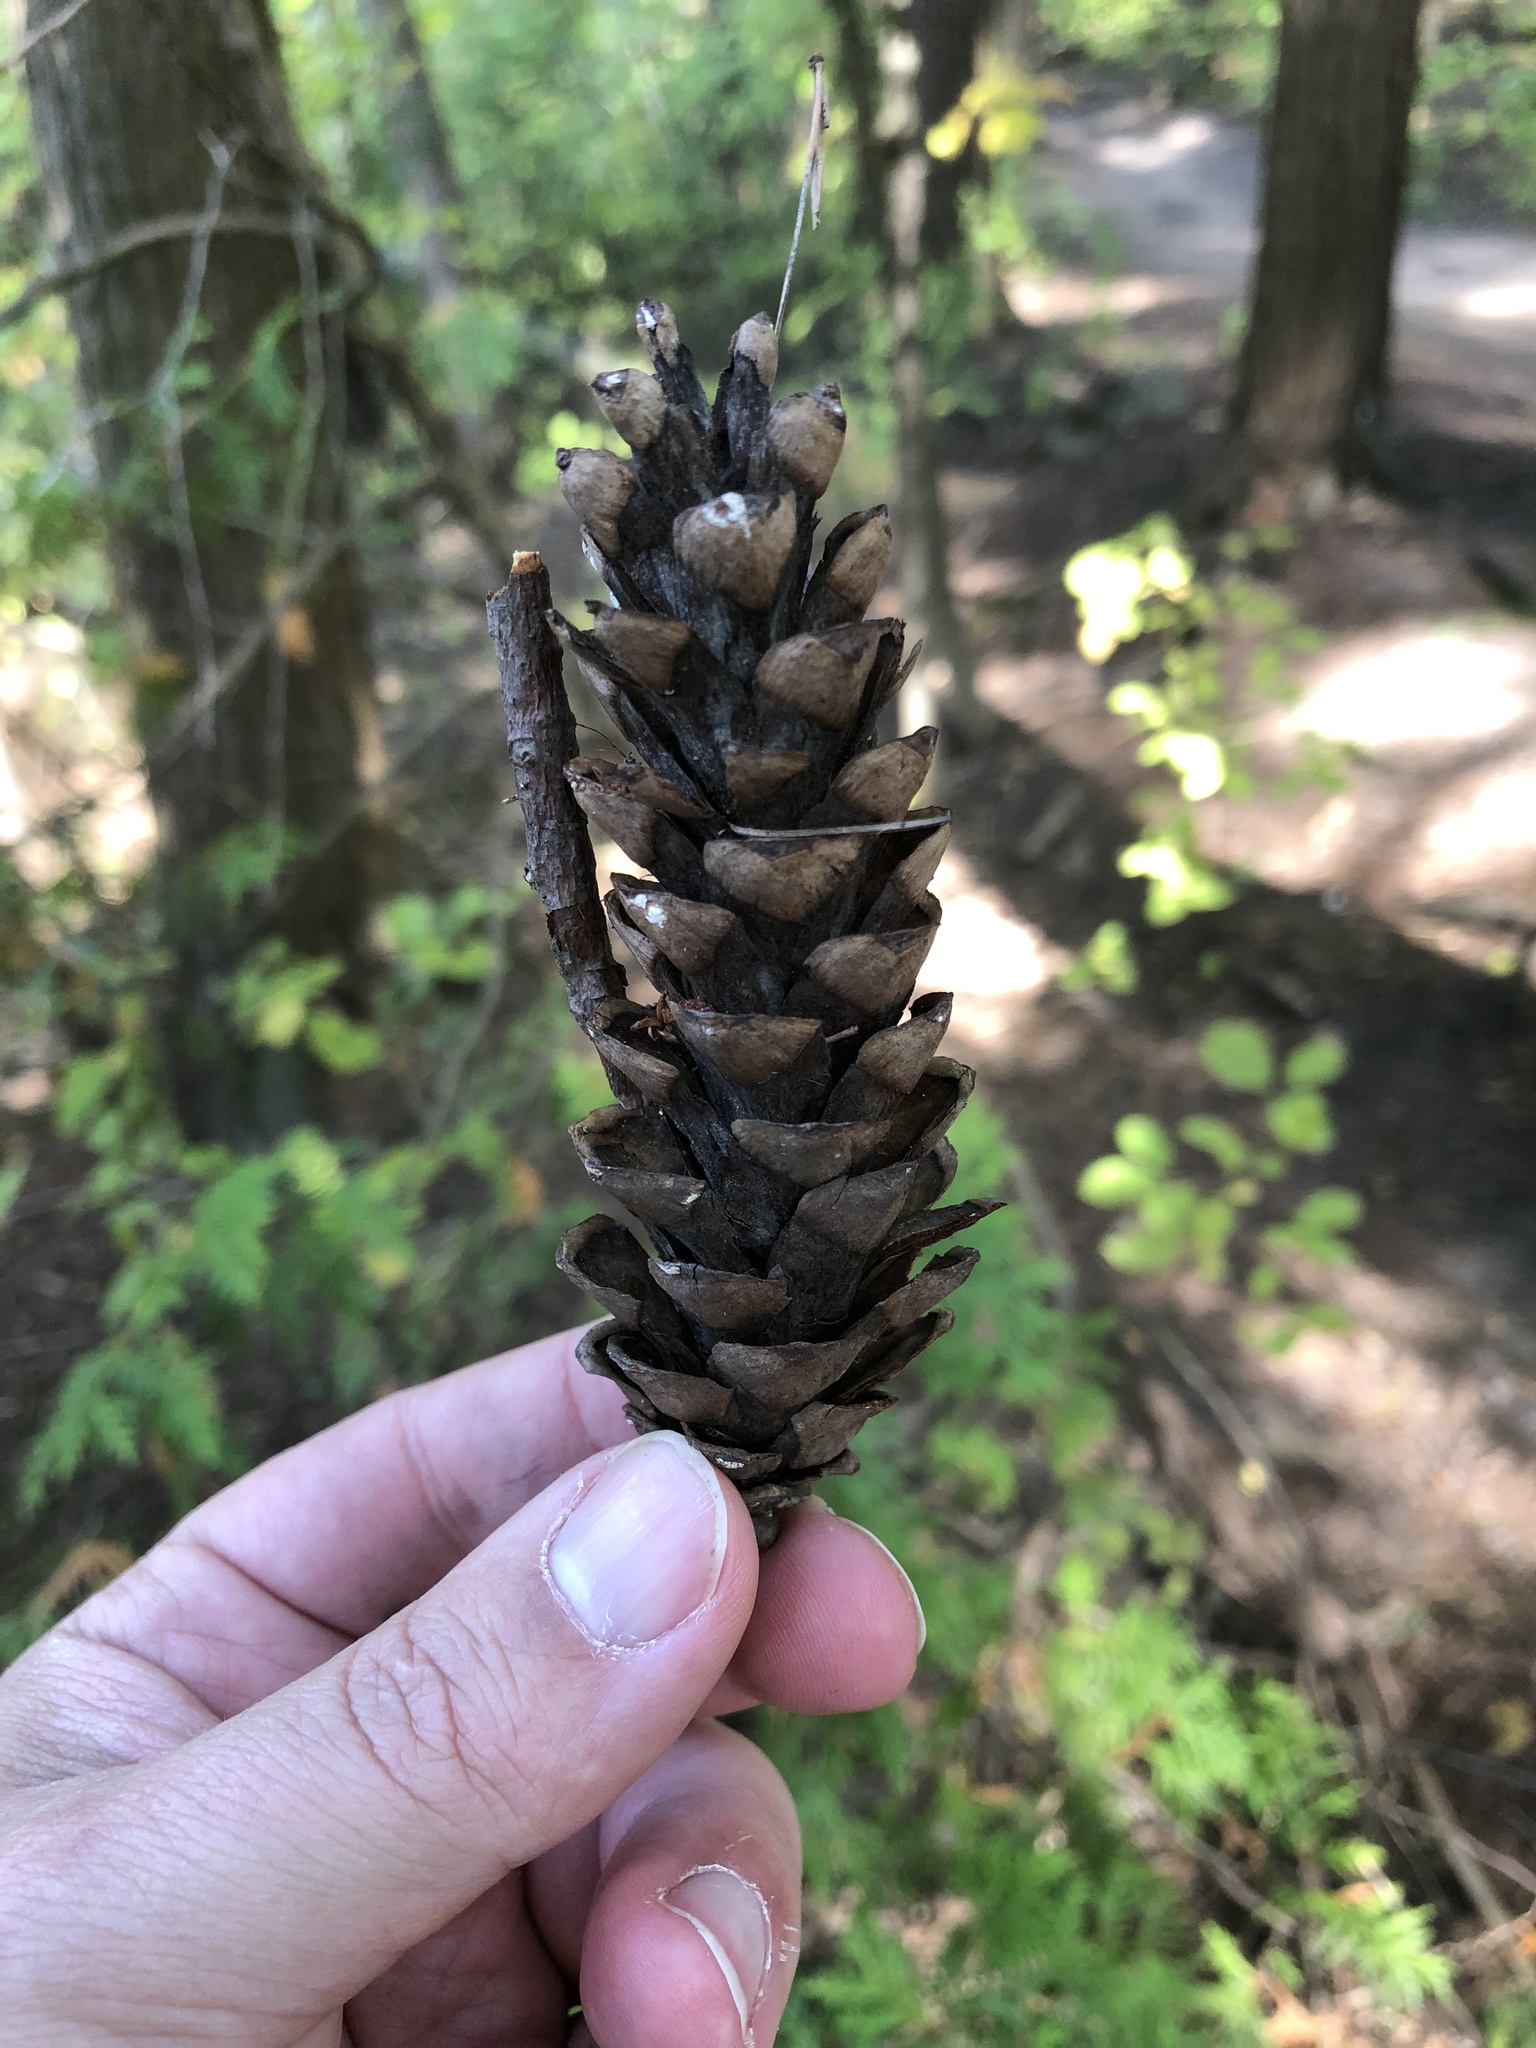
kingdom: Plantae
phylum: Tracheophyta
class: Pinopsida
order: Pinales
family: Pinaceae
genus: Pinus
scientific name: Pinus strobus
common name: Weymouth pine
